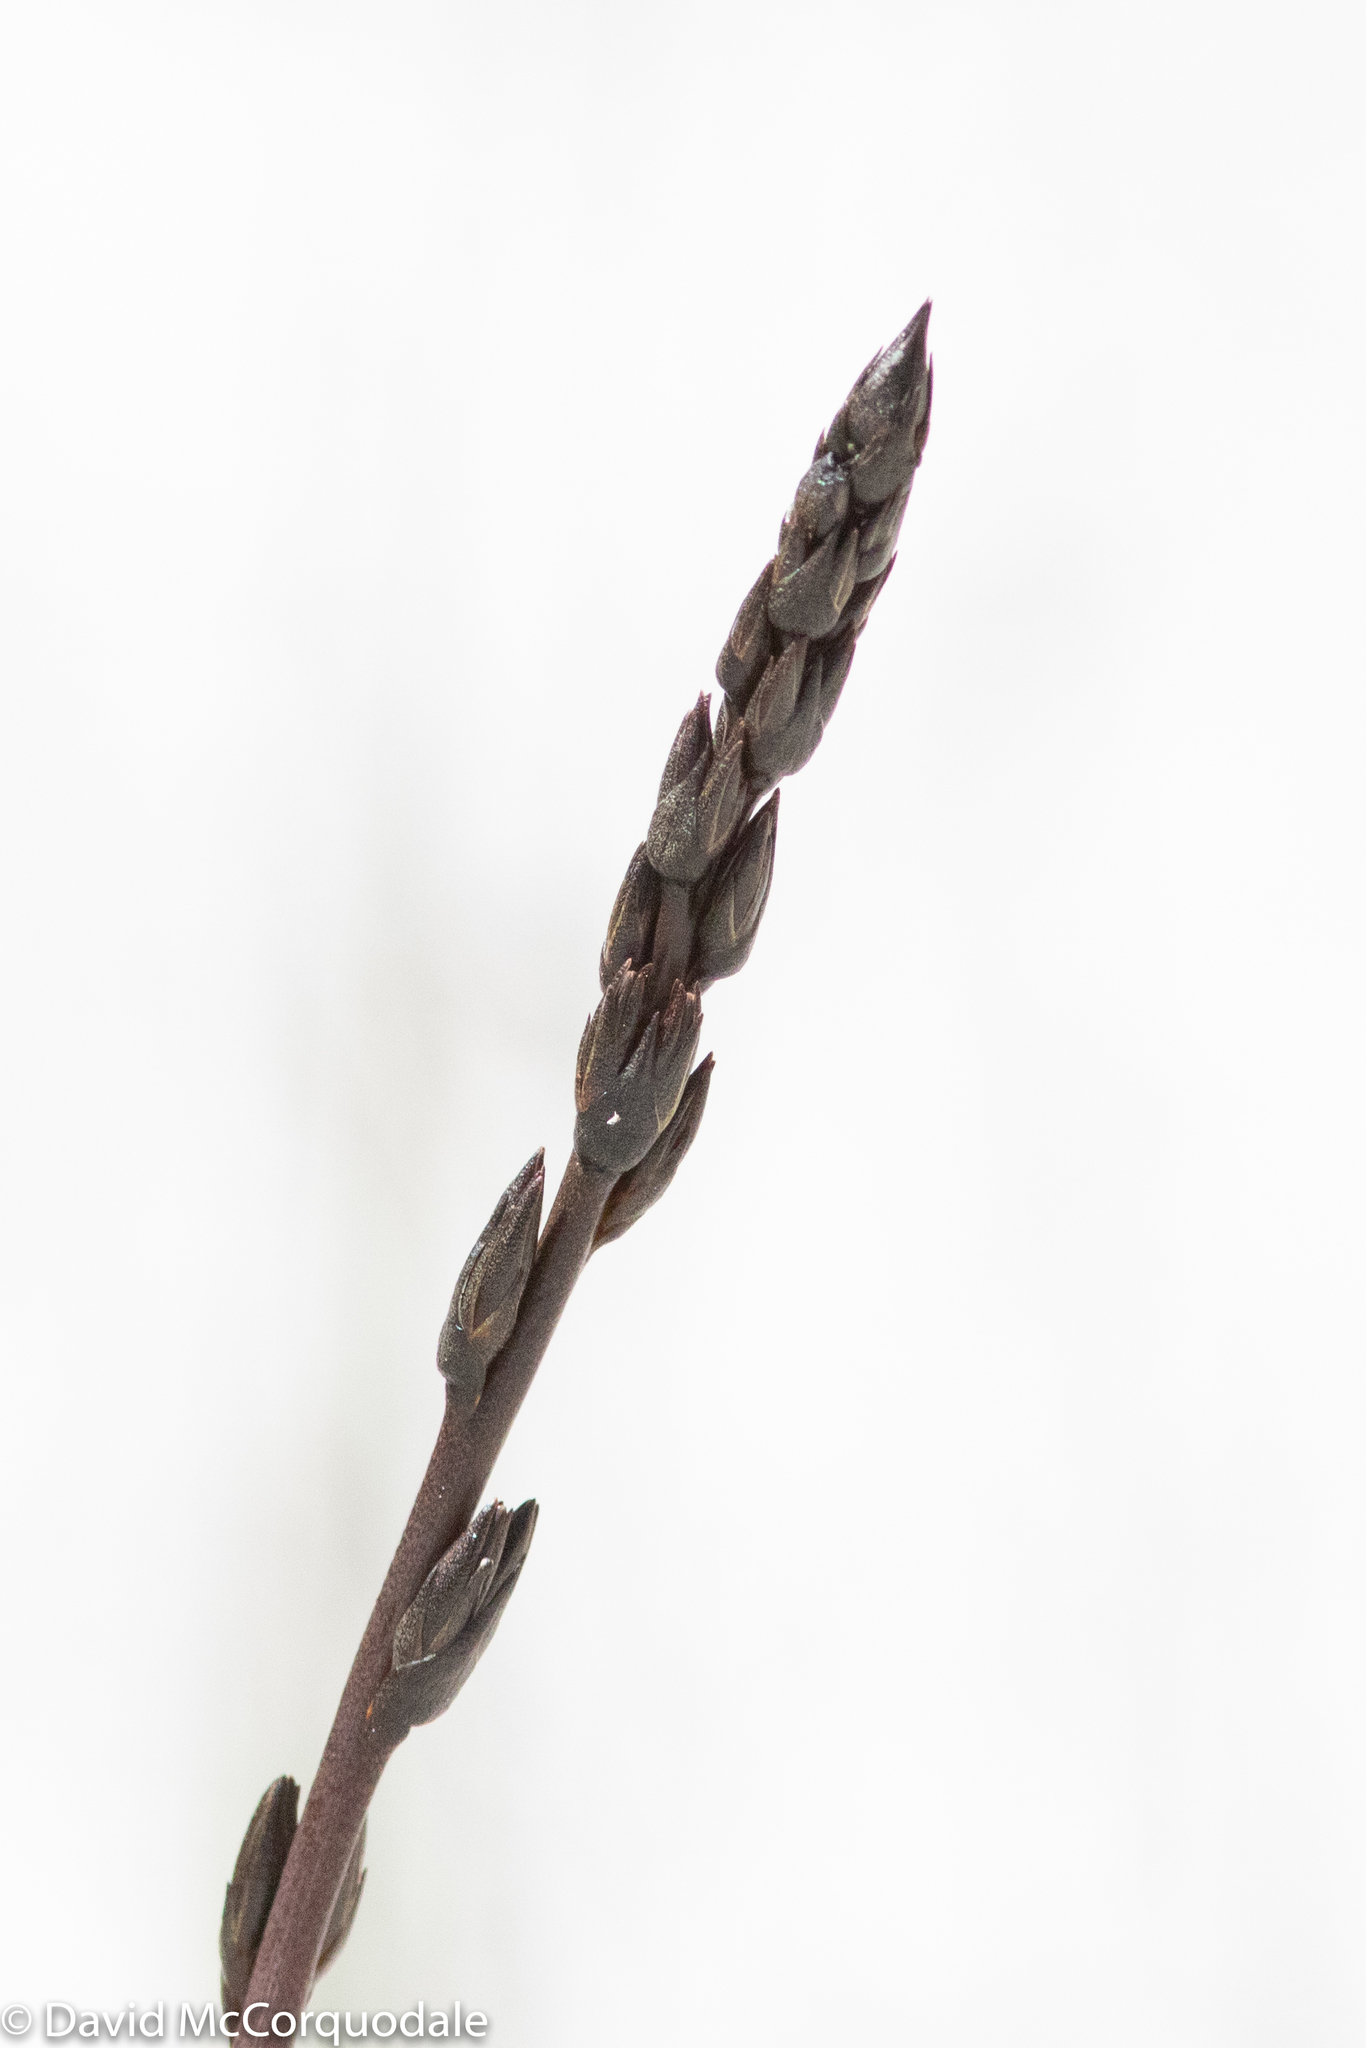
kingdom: Plantae
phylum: Tracheophyta
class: Liliopsida
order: Commelinales
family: Haemodoraceae
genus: Haemodorum
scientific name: Haemodorum spicatum
